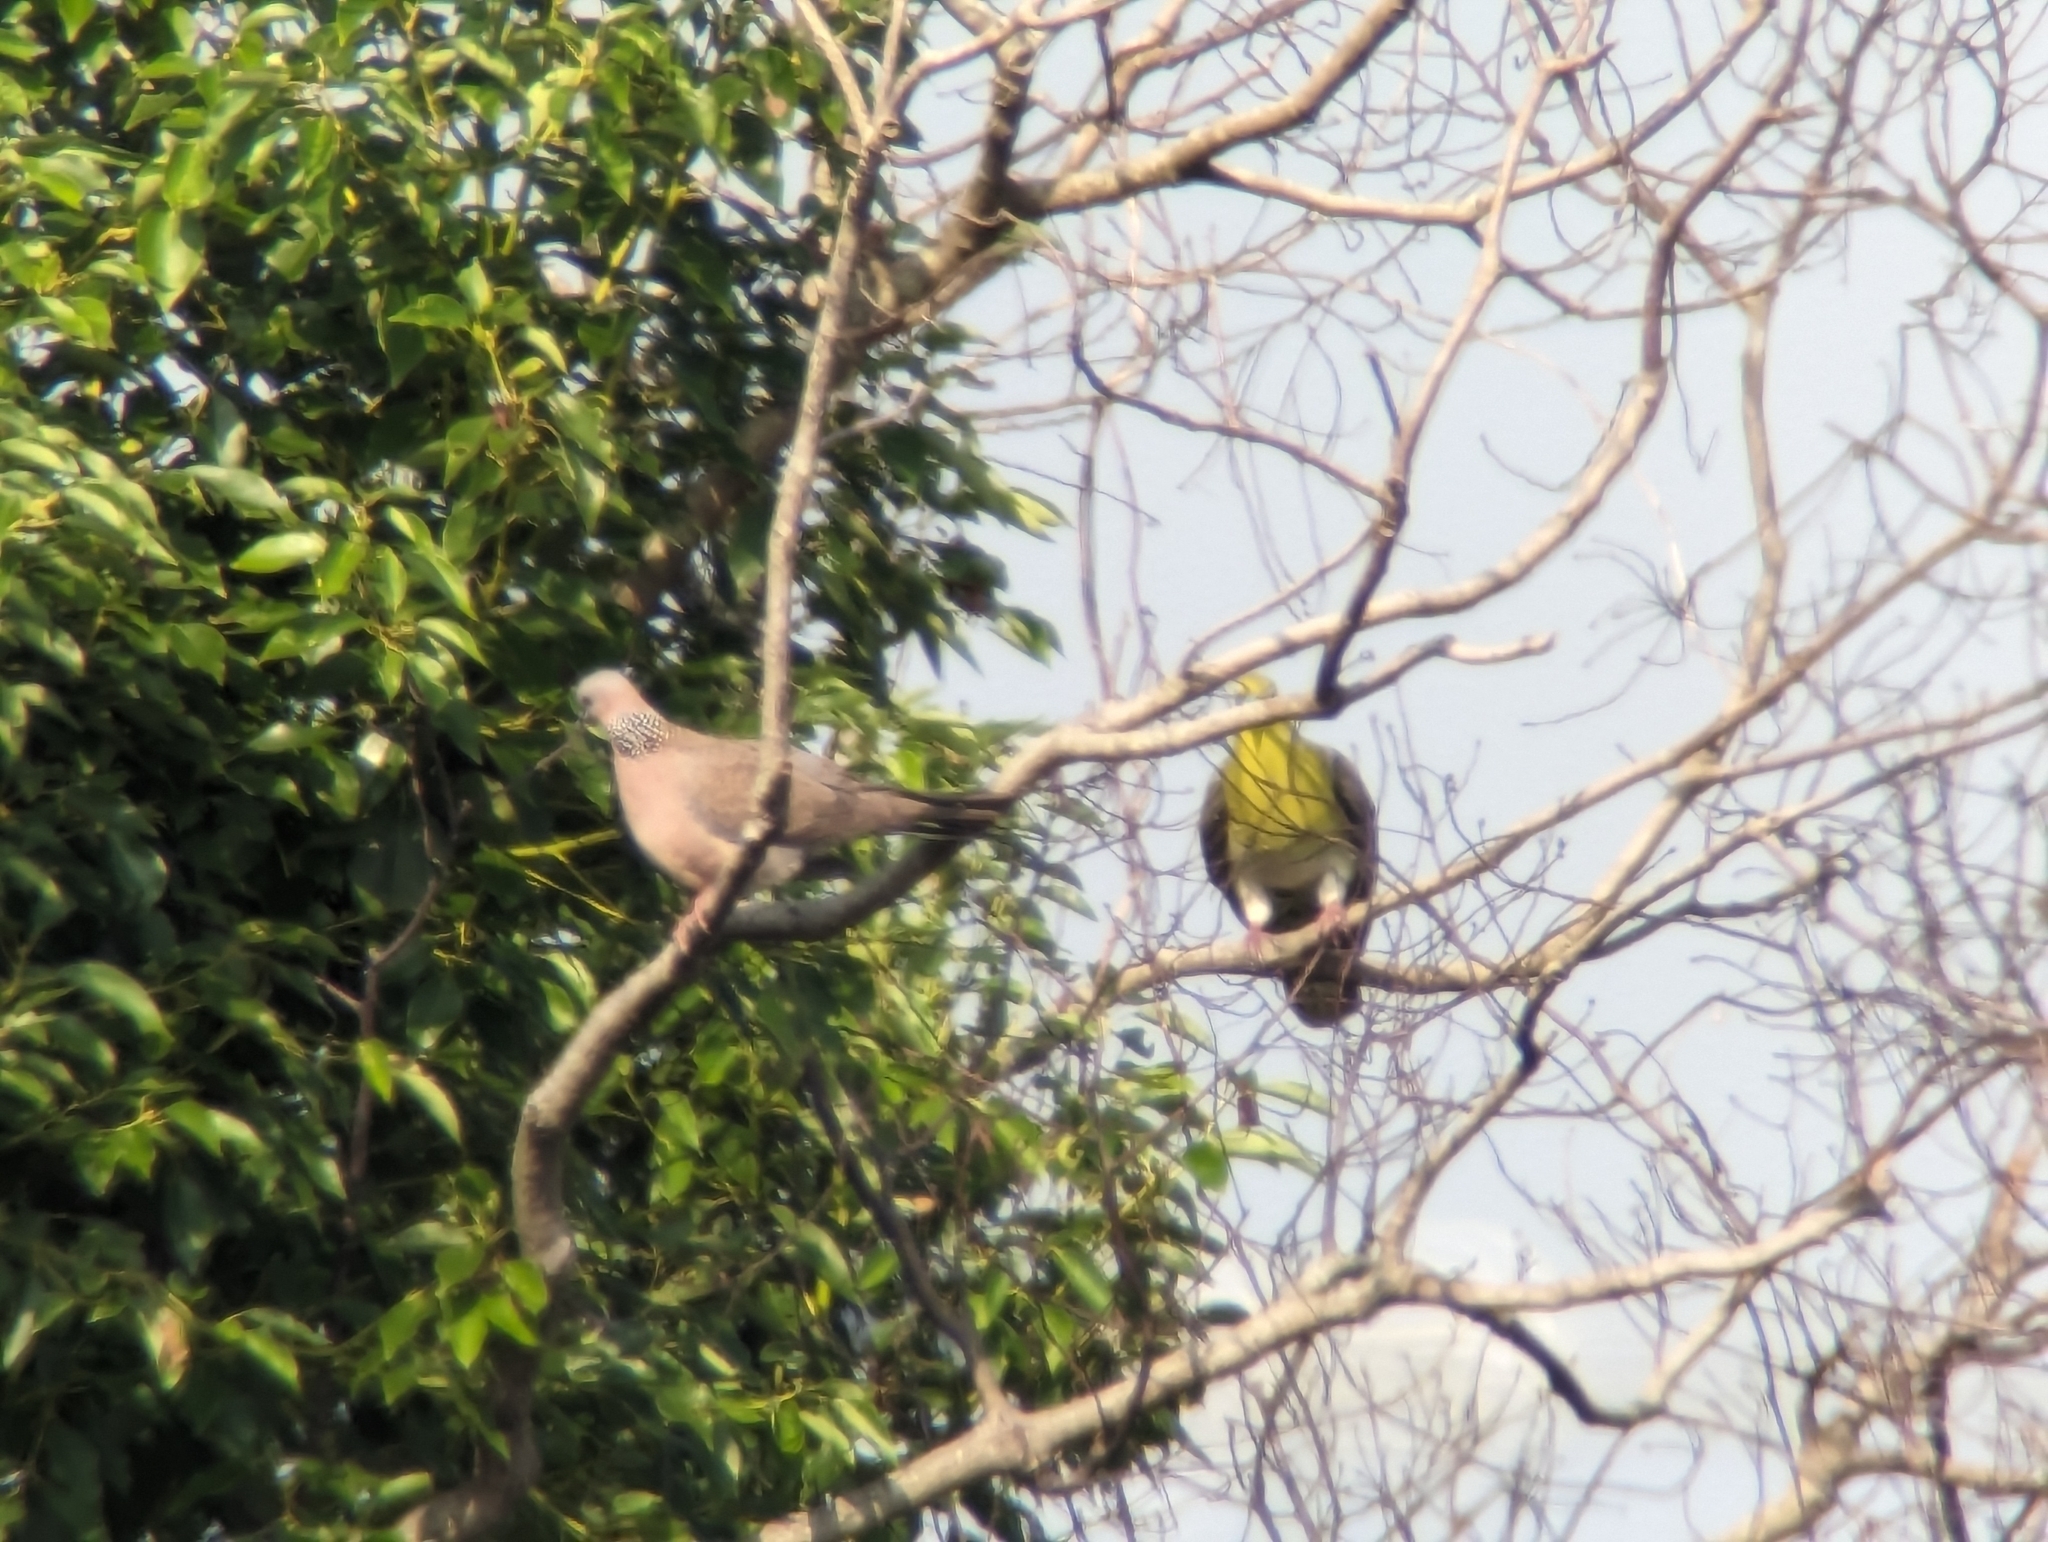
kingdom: Animalia
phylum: Chordata
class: Aves
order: Columbiformes
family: Columbidae
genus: Spilopelia
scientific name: Spilopelia chinensis
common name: Spotted dove
